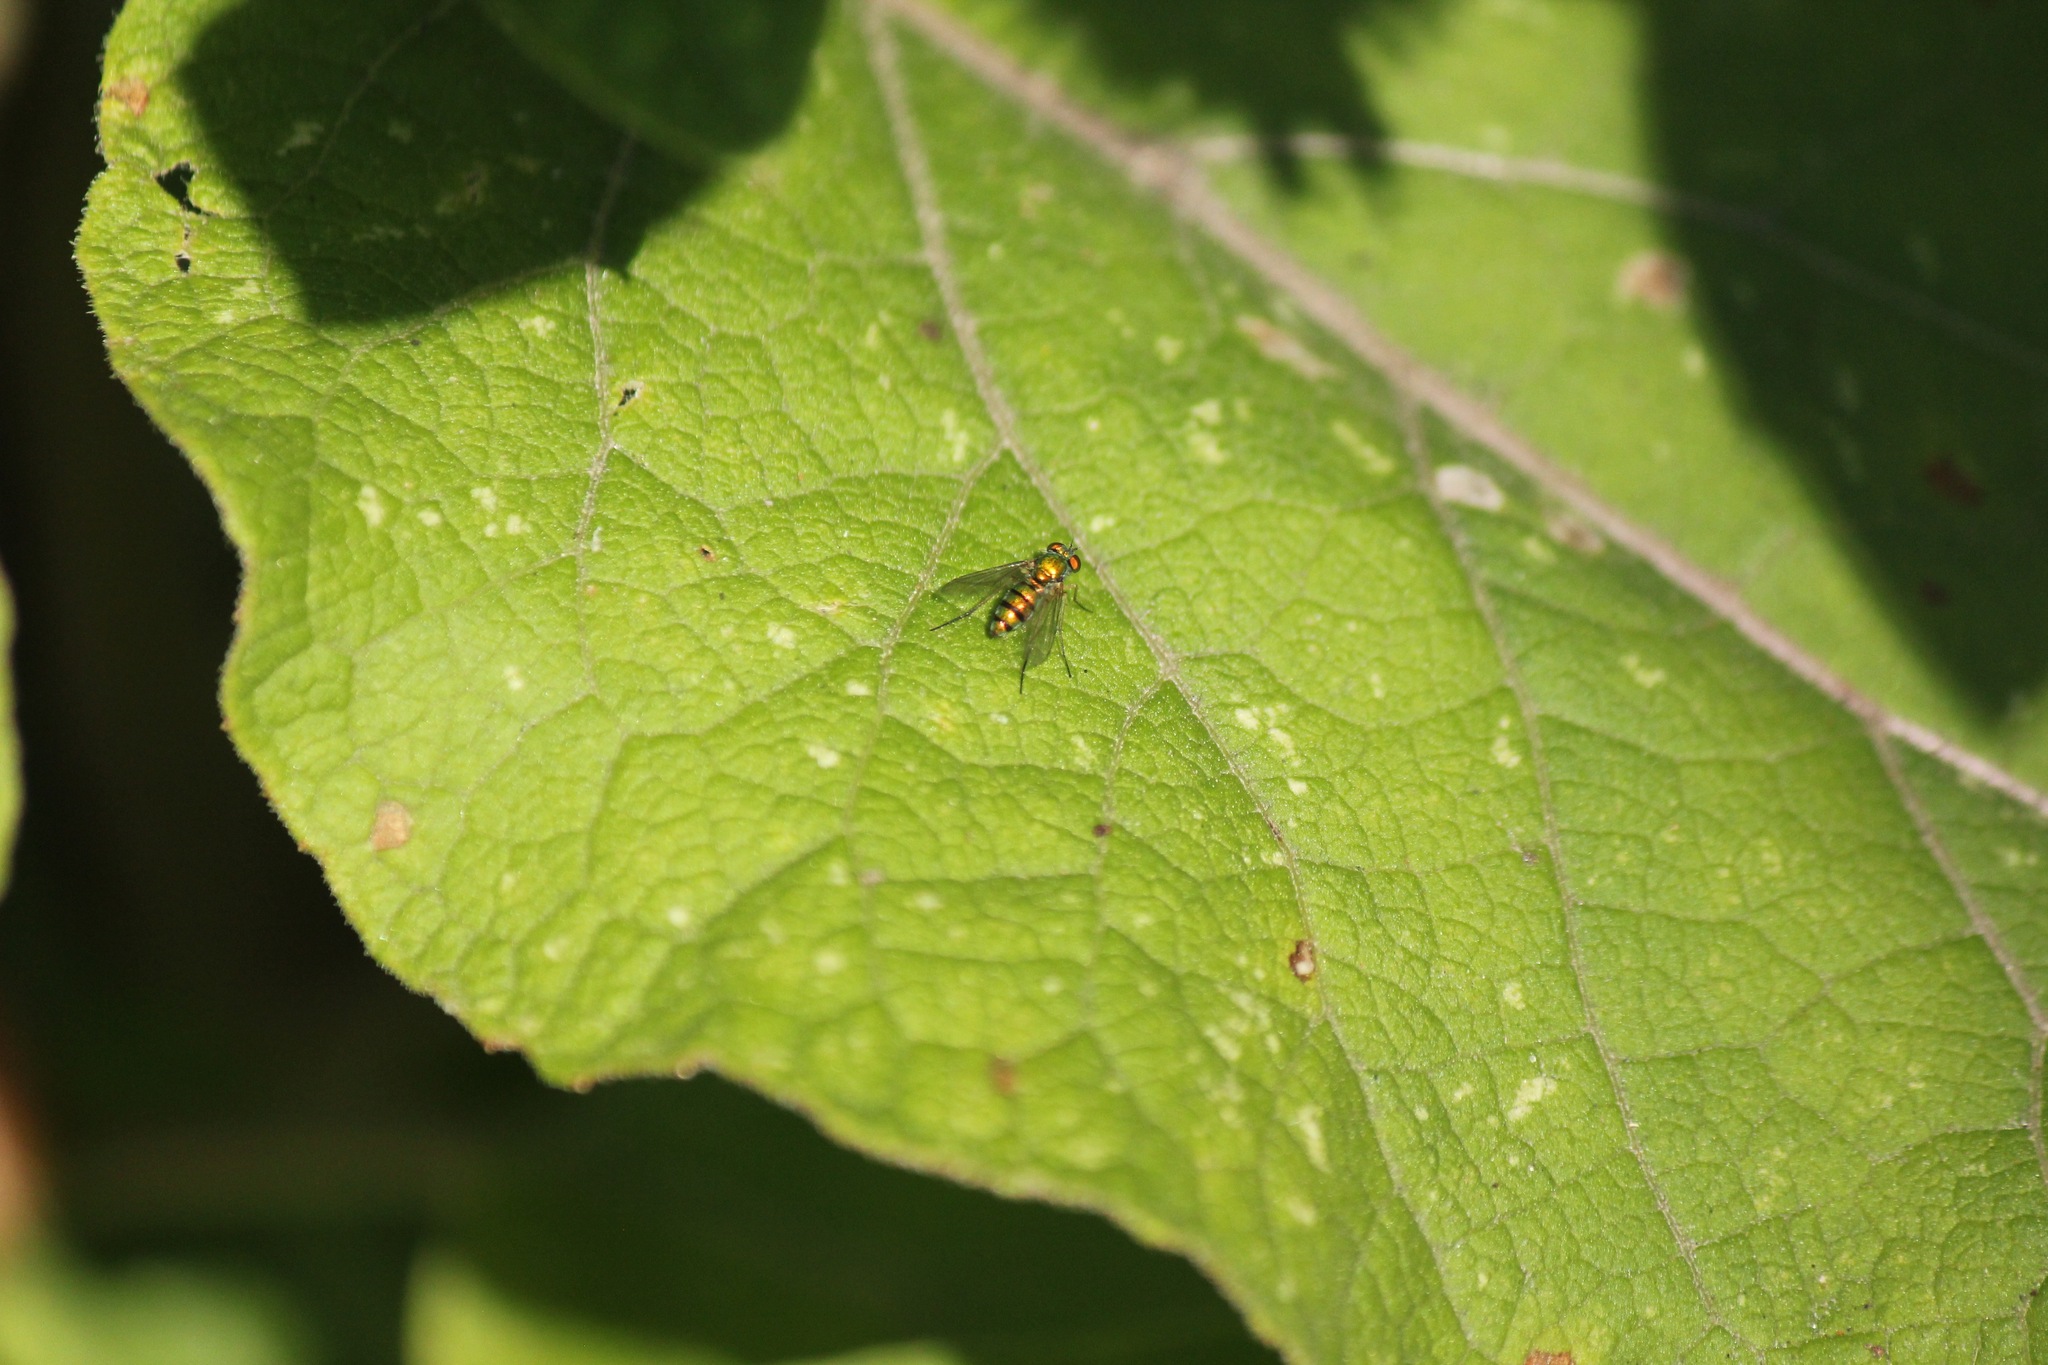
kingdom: Animalia
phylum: Arthropoda
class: Insecta
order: Diptera
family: Dolichopodidae
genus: Condylostylus
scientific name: Condylostylus
